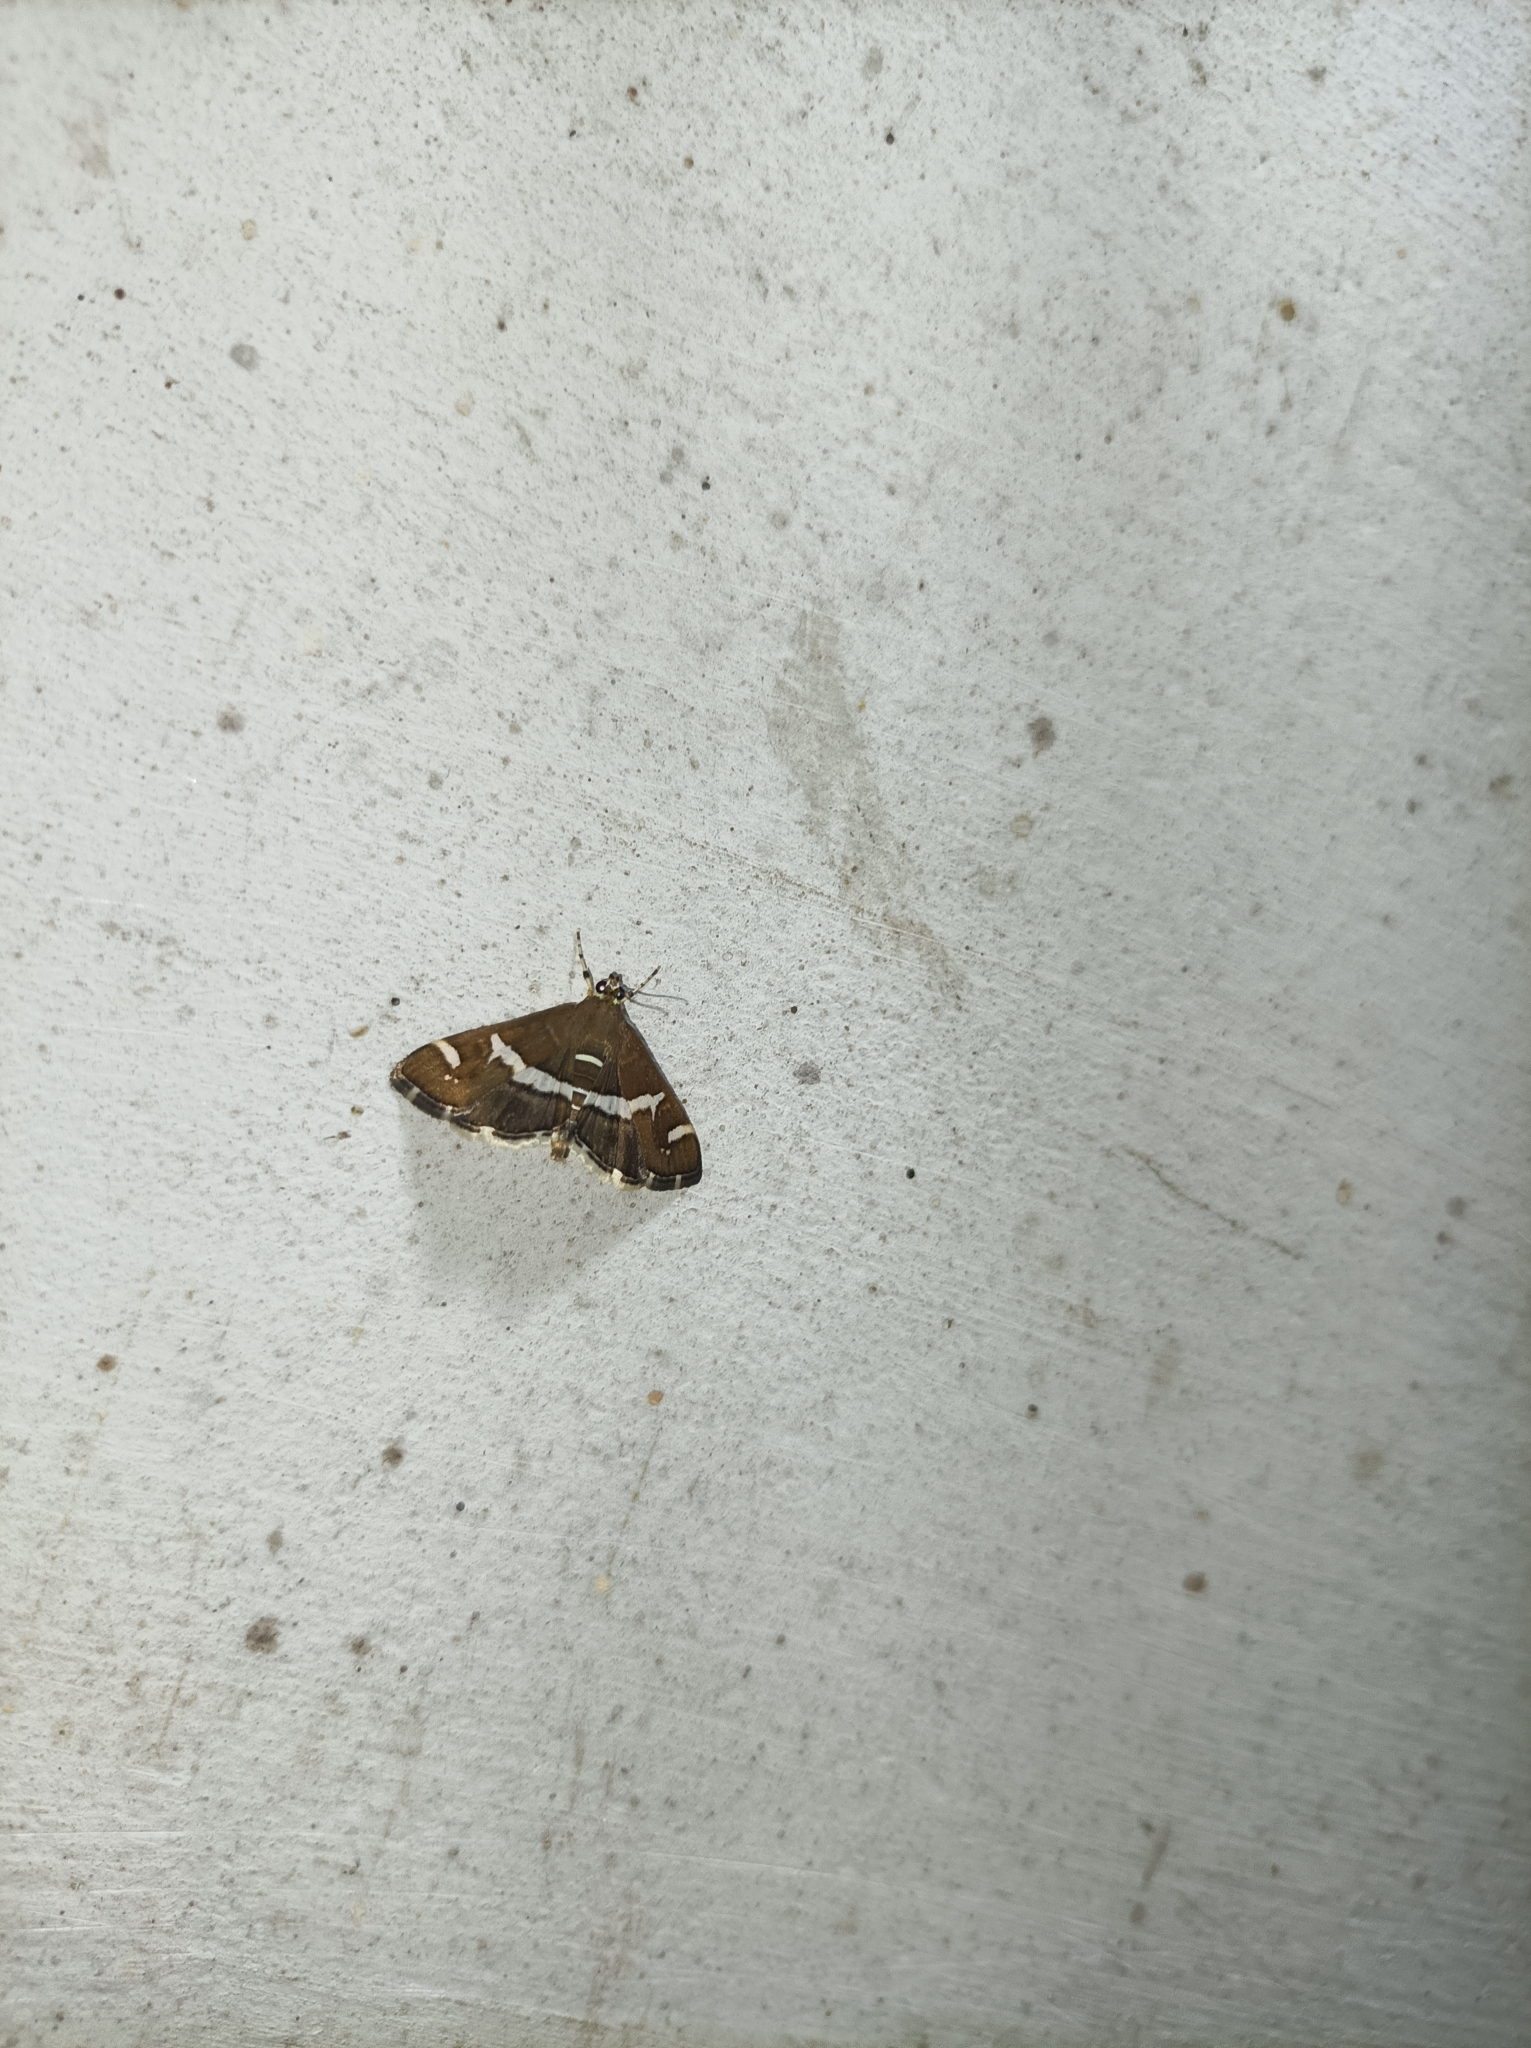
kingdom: Animalia
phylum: Arthropoda
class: Insecta
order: Lepidoptera
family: Crambidae
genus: Spoladea
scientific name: Spoladea recurvalis
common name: Beet webworm moth
